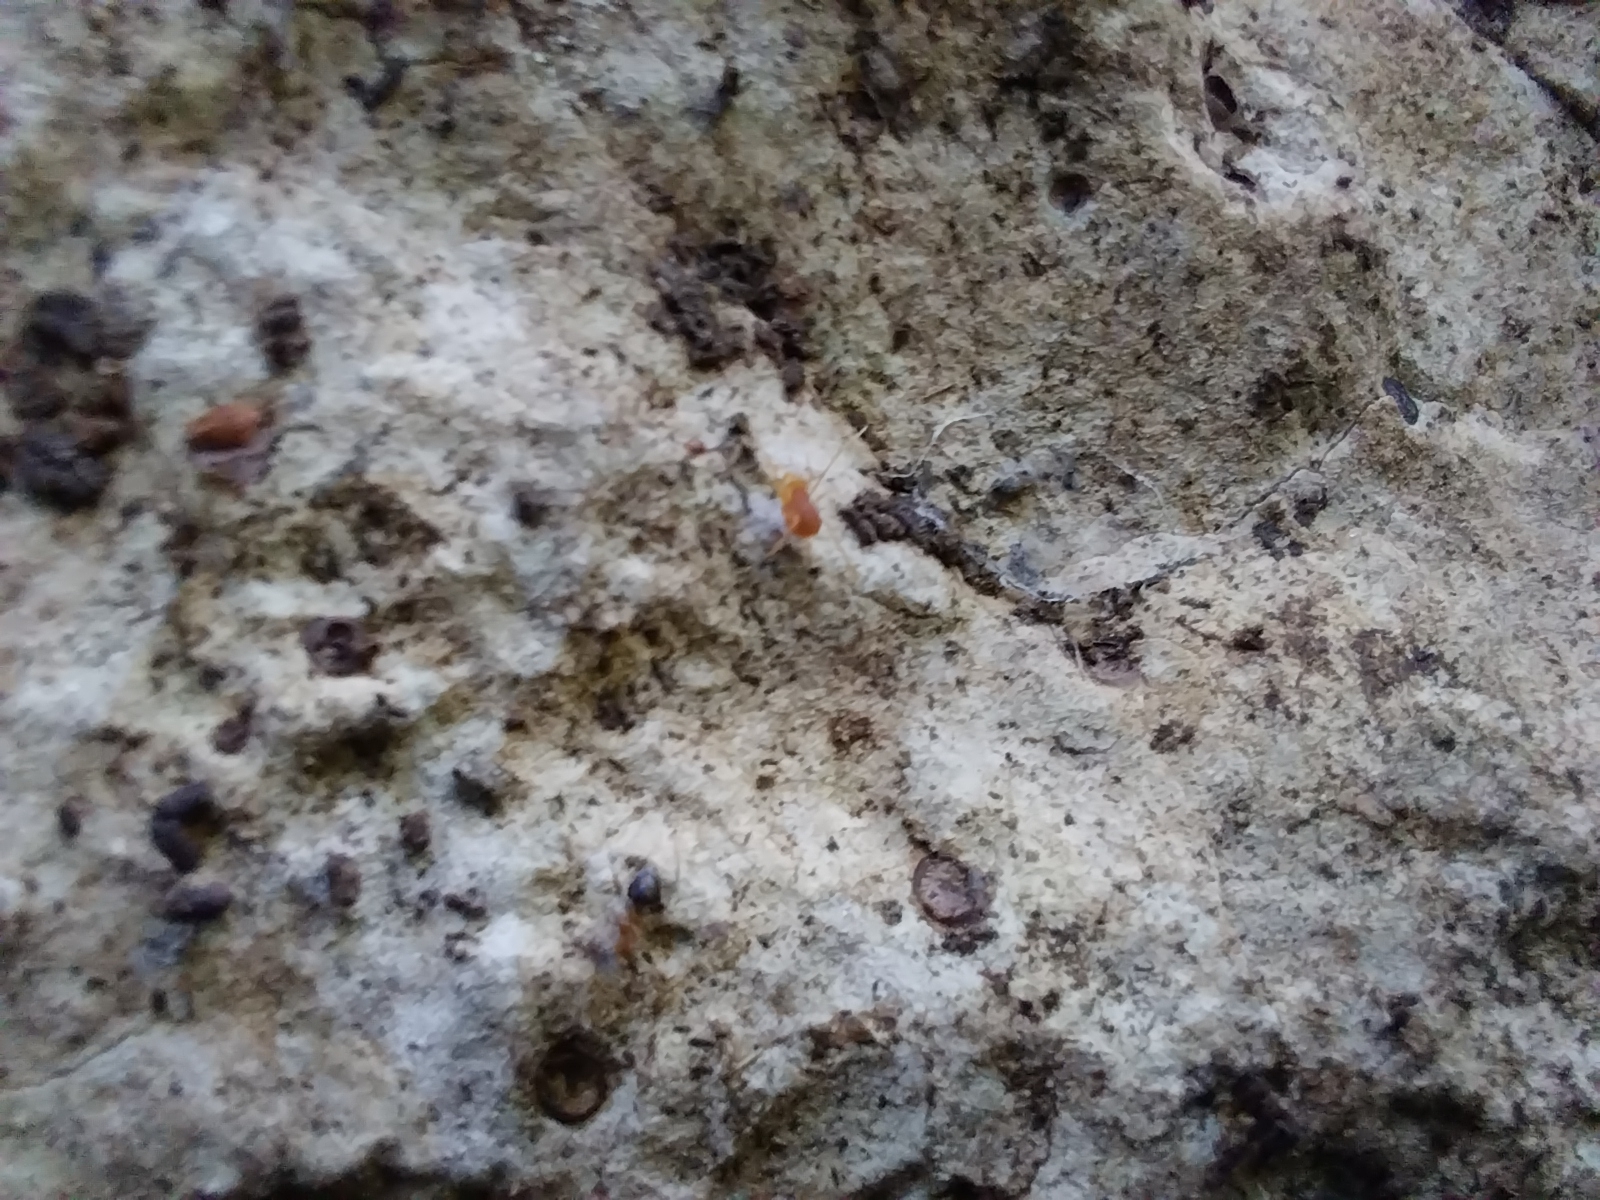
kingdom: Animalia
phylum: Arthropoda
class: Arachnida
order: Opiliones
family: Phalangodidae
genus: Scotolemon
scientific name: Scotolemon doriae
